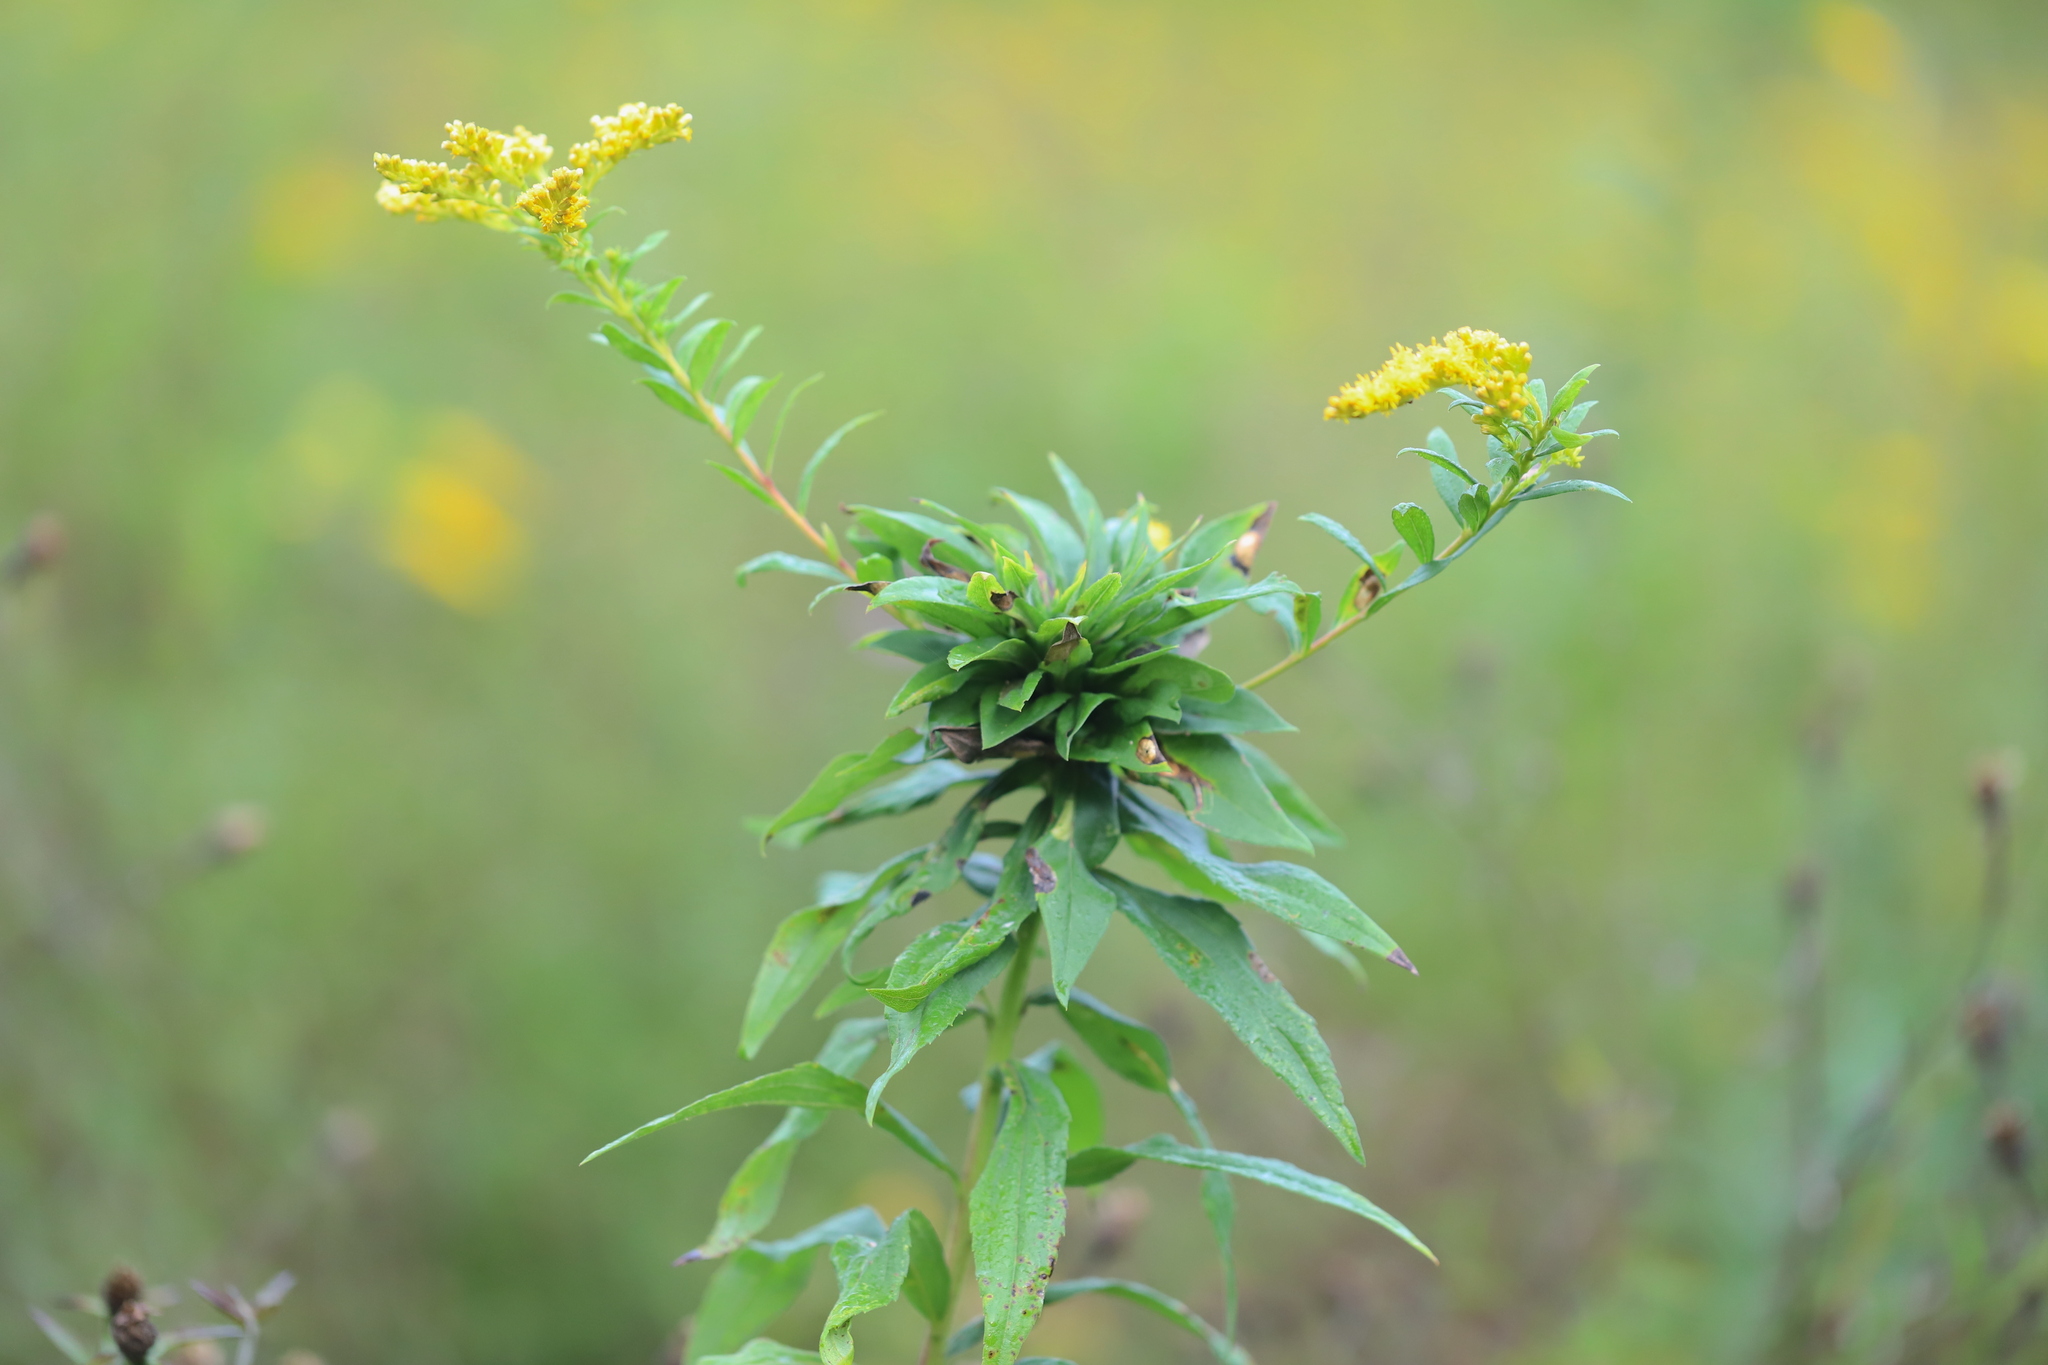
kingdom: Animalia
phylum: Arthropoda
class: Insecta
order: Diptera
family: Cecidomyiidae
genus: Rhopalomyia
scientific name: Rhopalomyia solidaginis
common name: Goldenrod bunch gall midge
